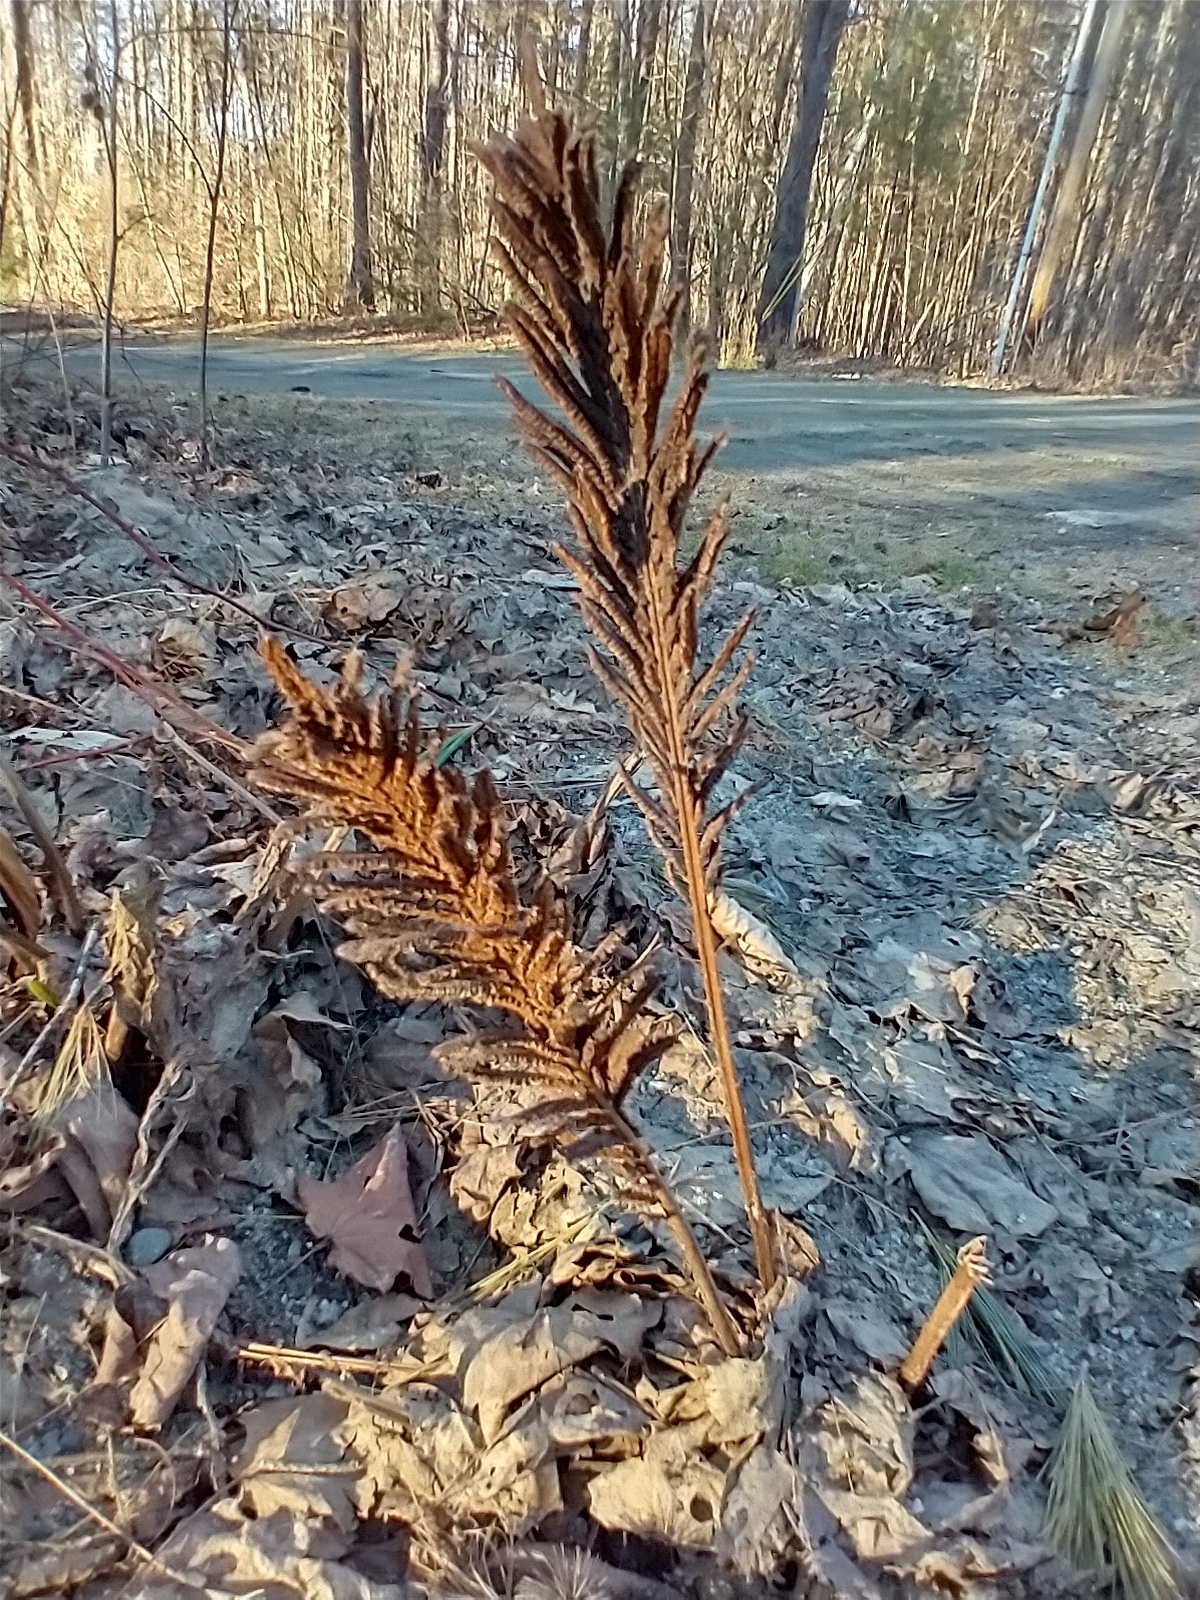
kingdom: Plantae
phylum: Tracheophyta
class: Polypodiopsida
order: Polypodiales
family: Onocleaceae
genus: Matteuccia
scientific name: Matteuccia struthiopteris
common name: Ostrich fern
